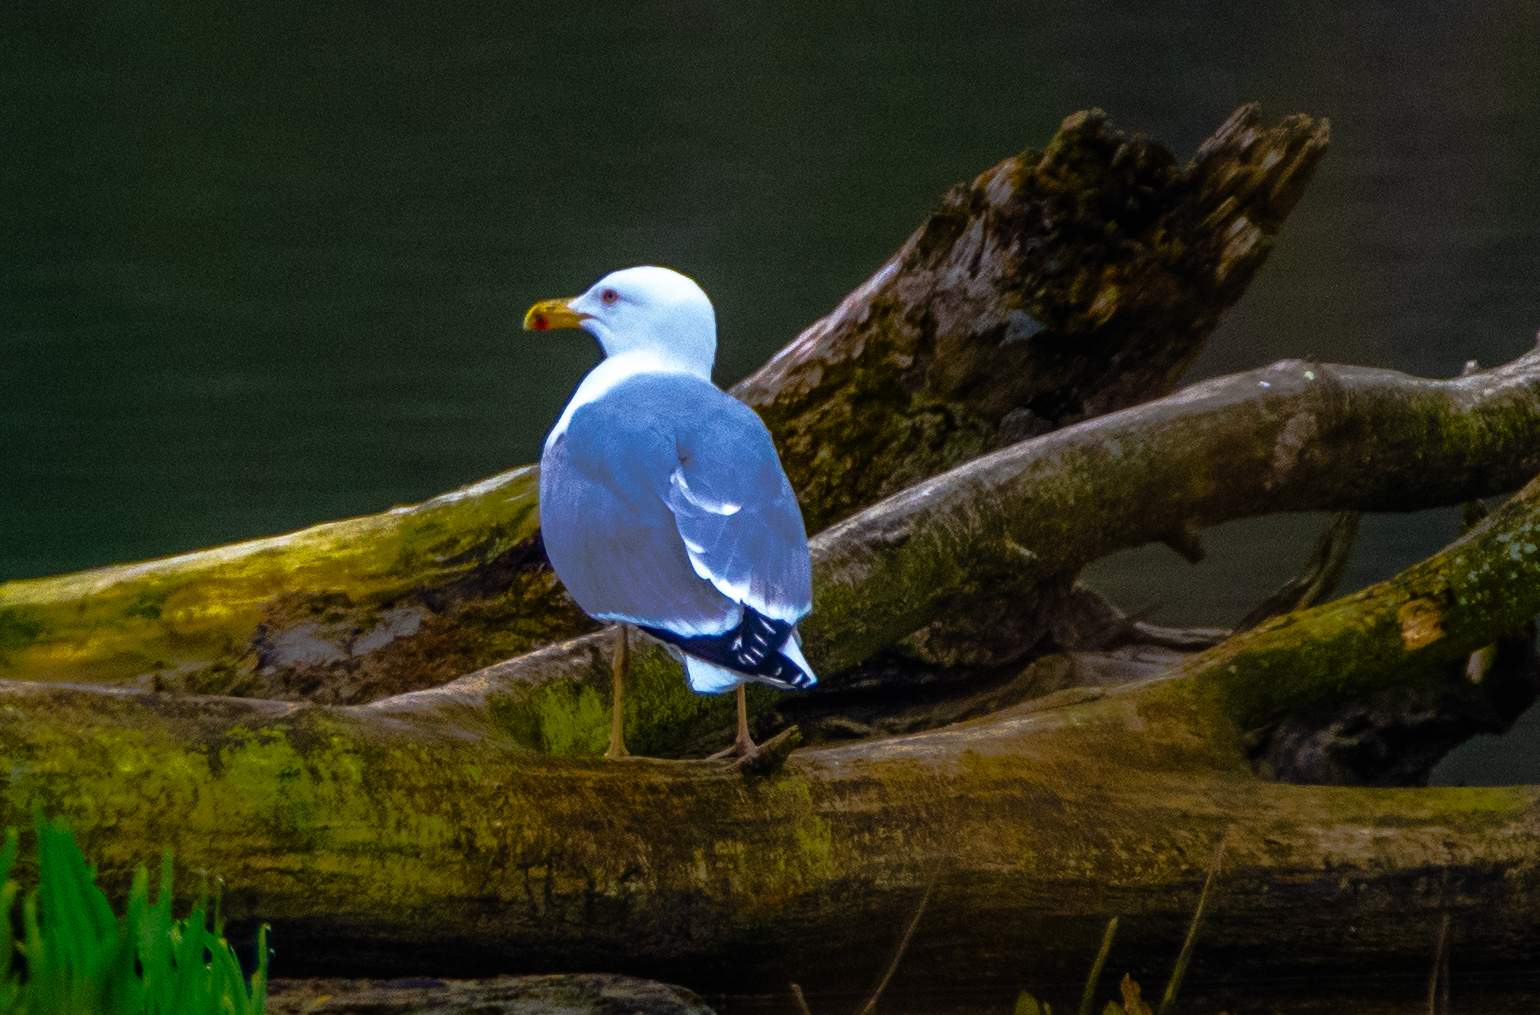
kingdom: Animalia
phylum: Chordata
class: Aves
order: Charadriiformes
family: Laridae
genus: Larus
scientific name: Larus michahellis
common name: Yellow-legged gull
